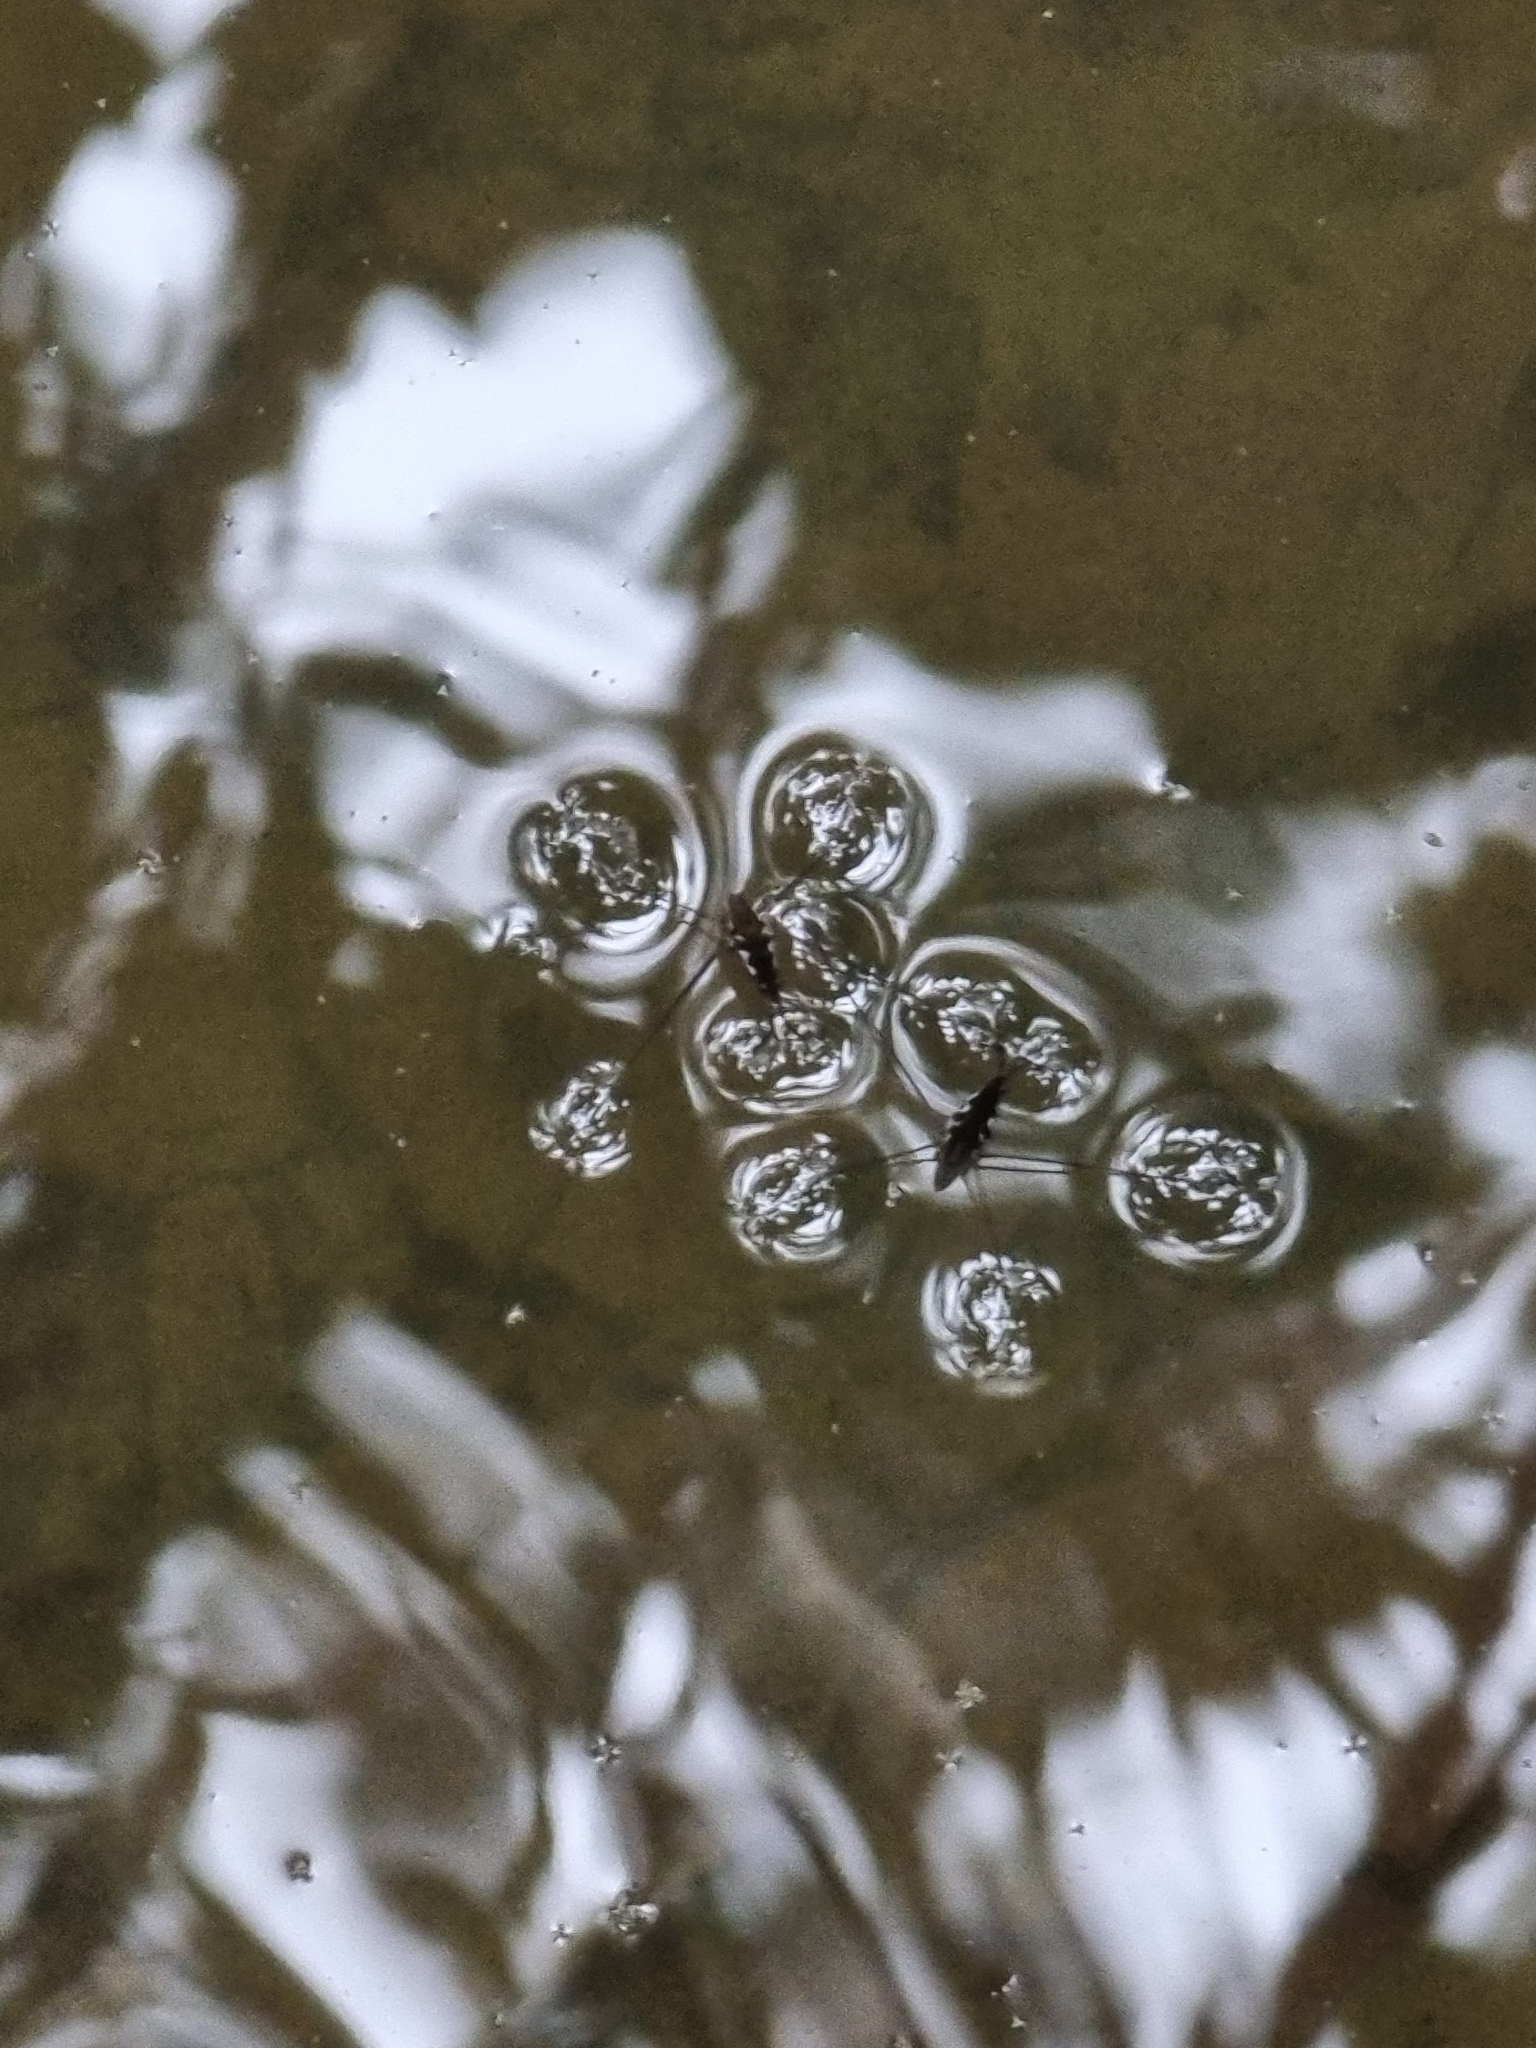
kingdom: Animalia
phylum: Arthropoda
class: Insecta
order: Hemiptera
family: Gerridae
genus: Tenagogerris
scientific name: Tenagogerris euphrosyne
